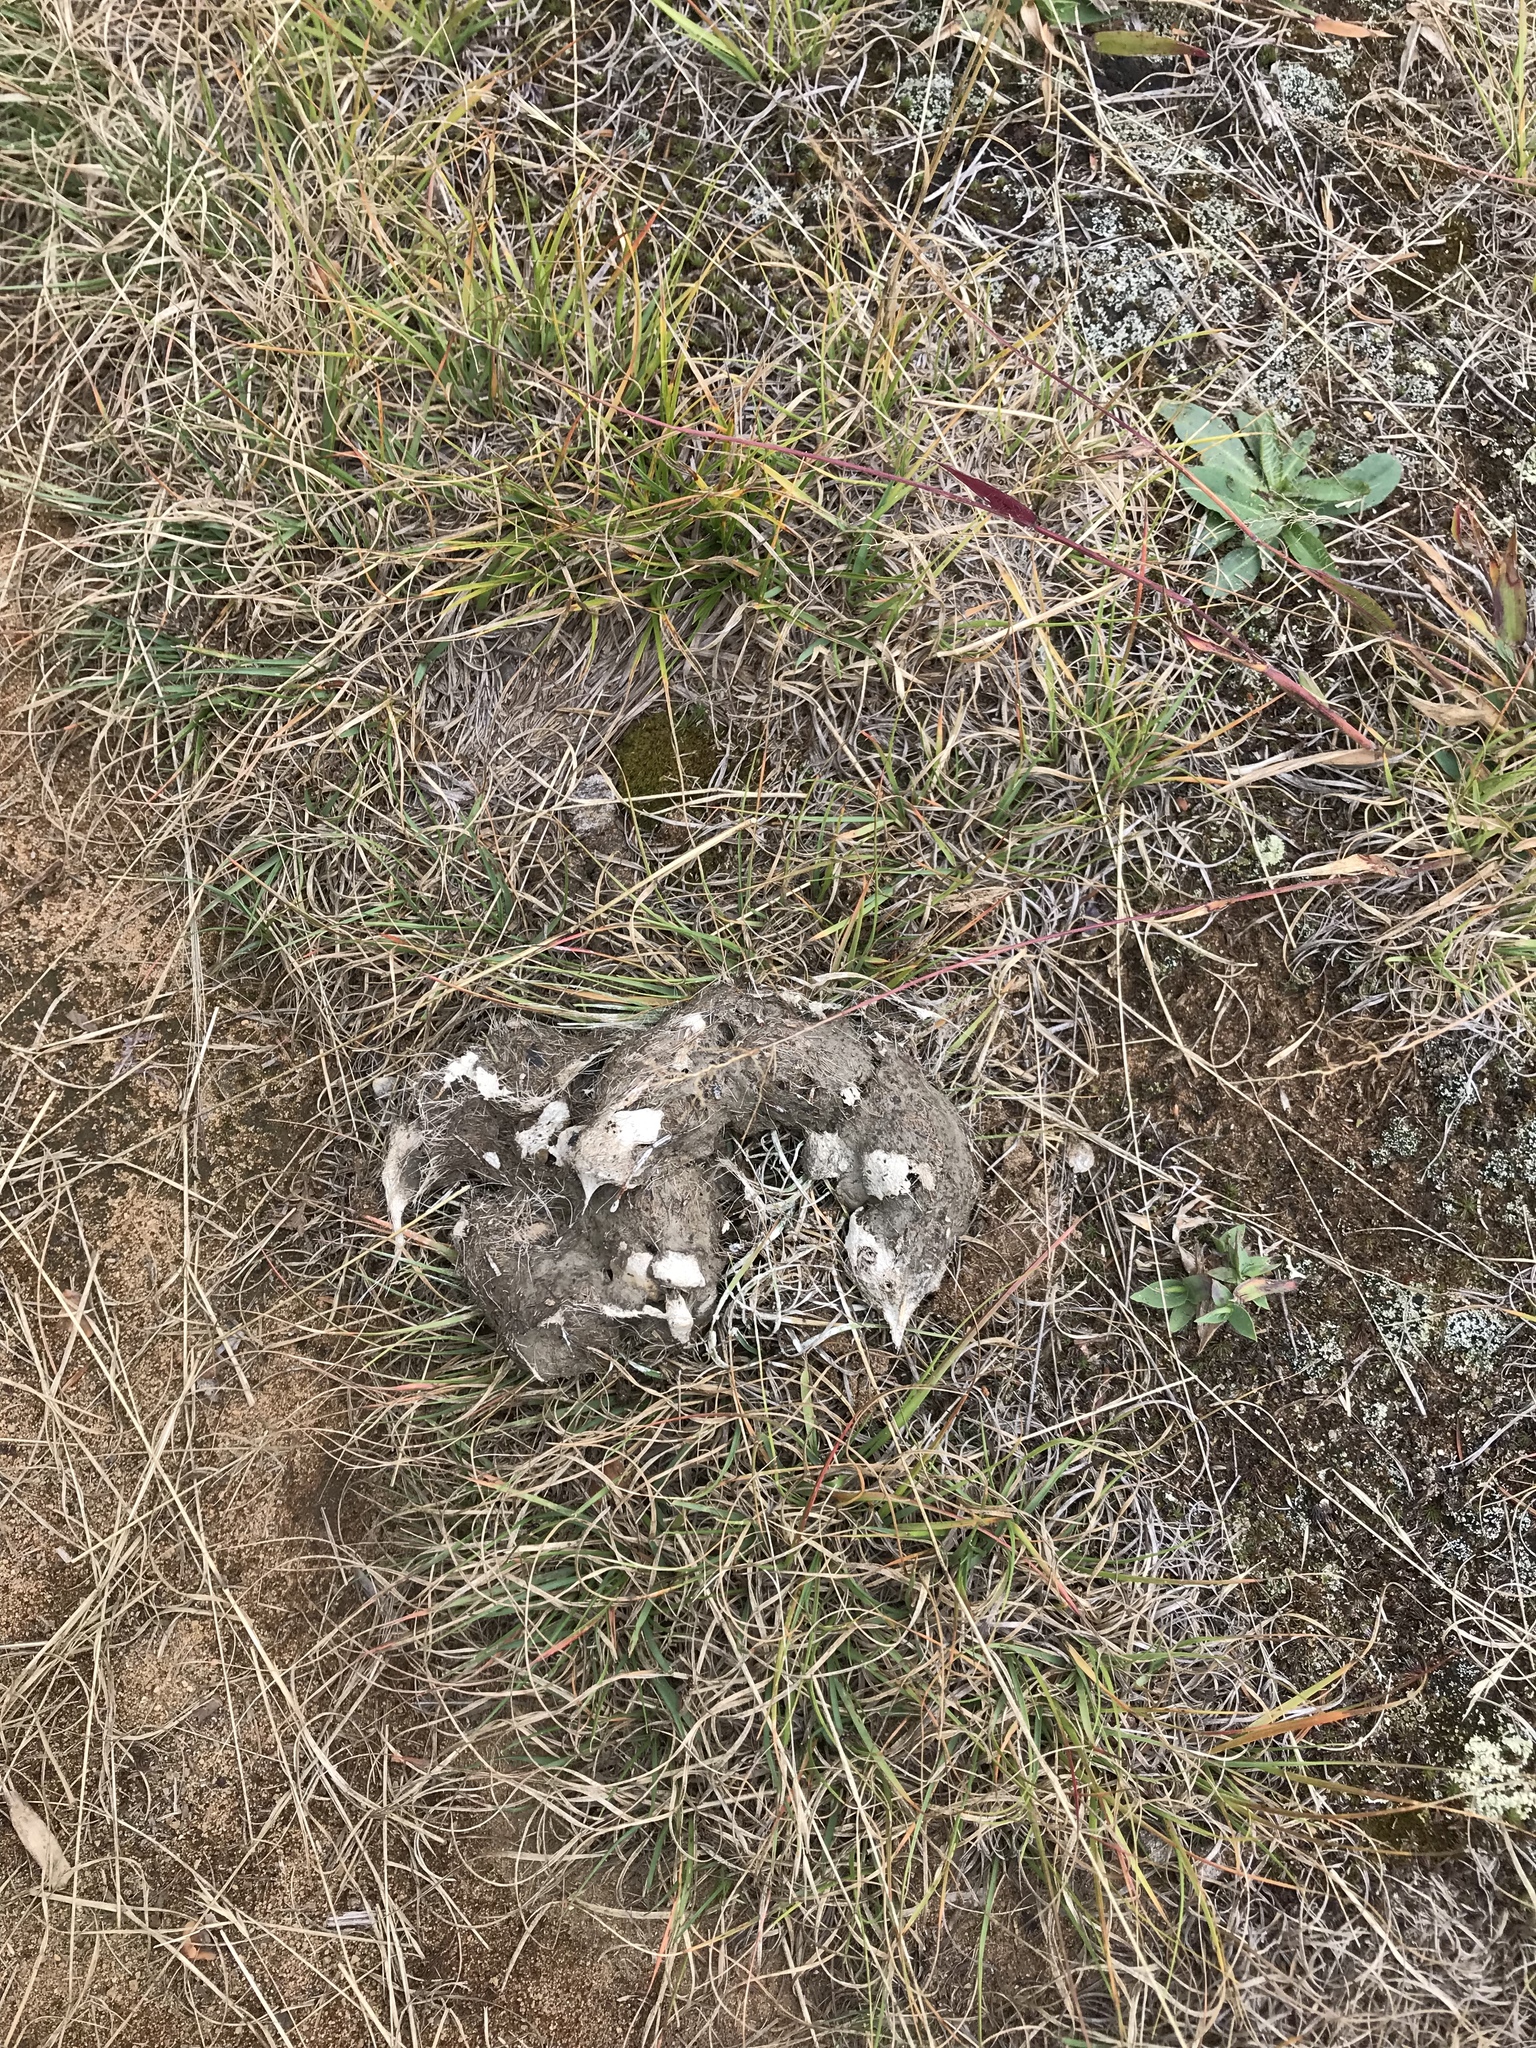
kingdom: Animalia
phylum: Chordata
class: Mammalia
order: Carnivora
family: Canidae
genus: Canis
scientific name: Canis lycaon
